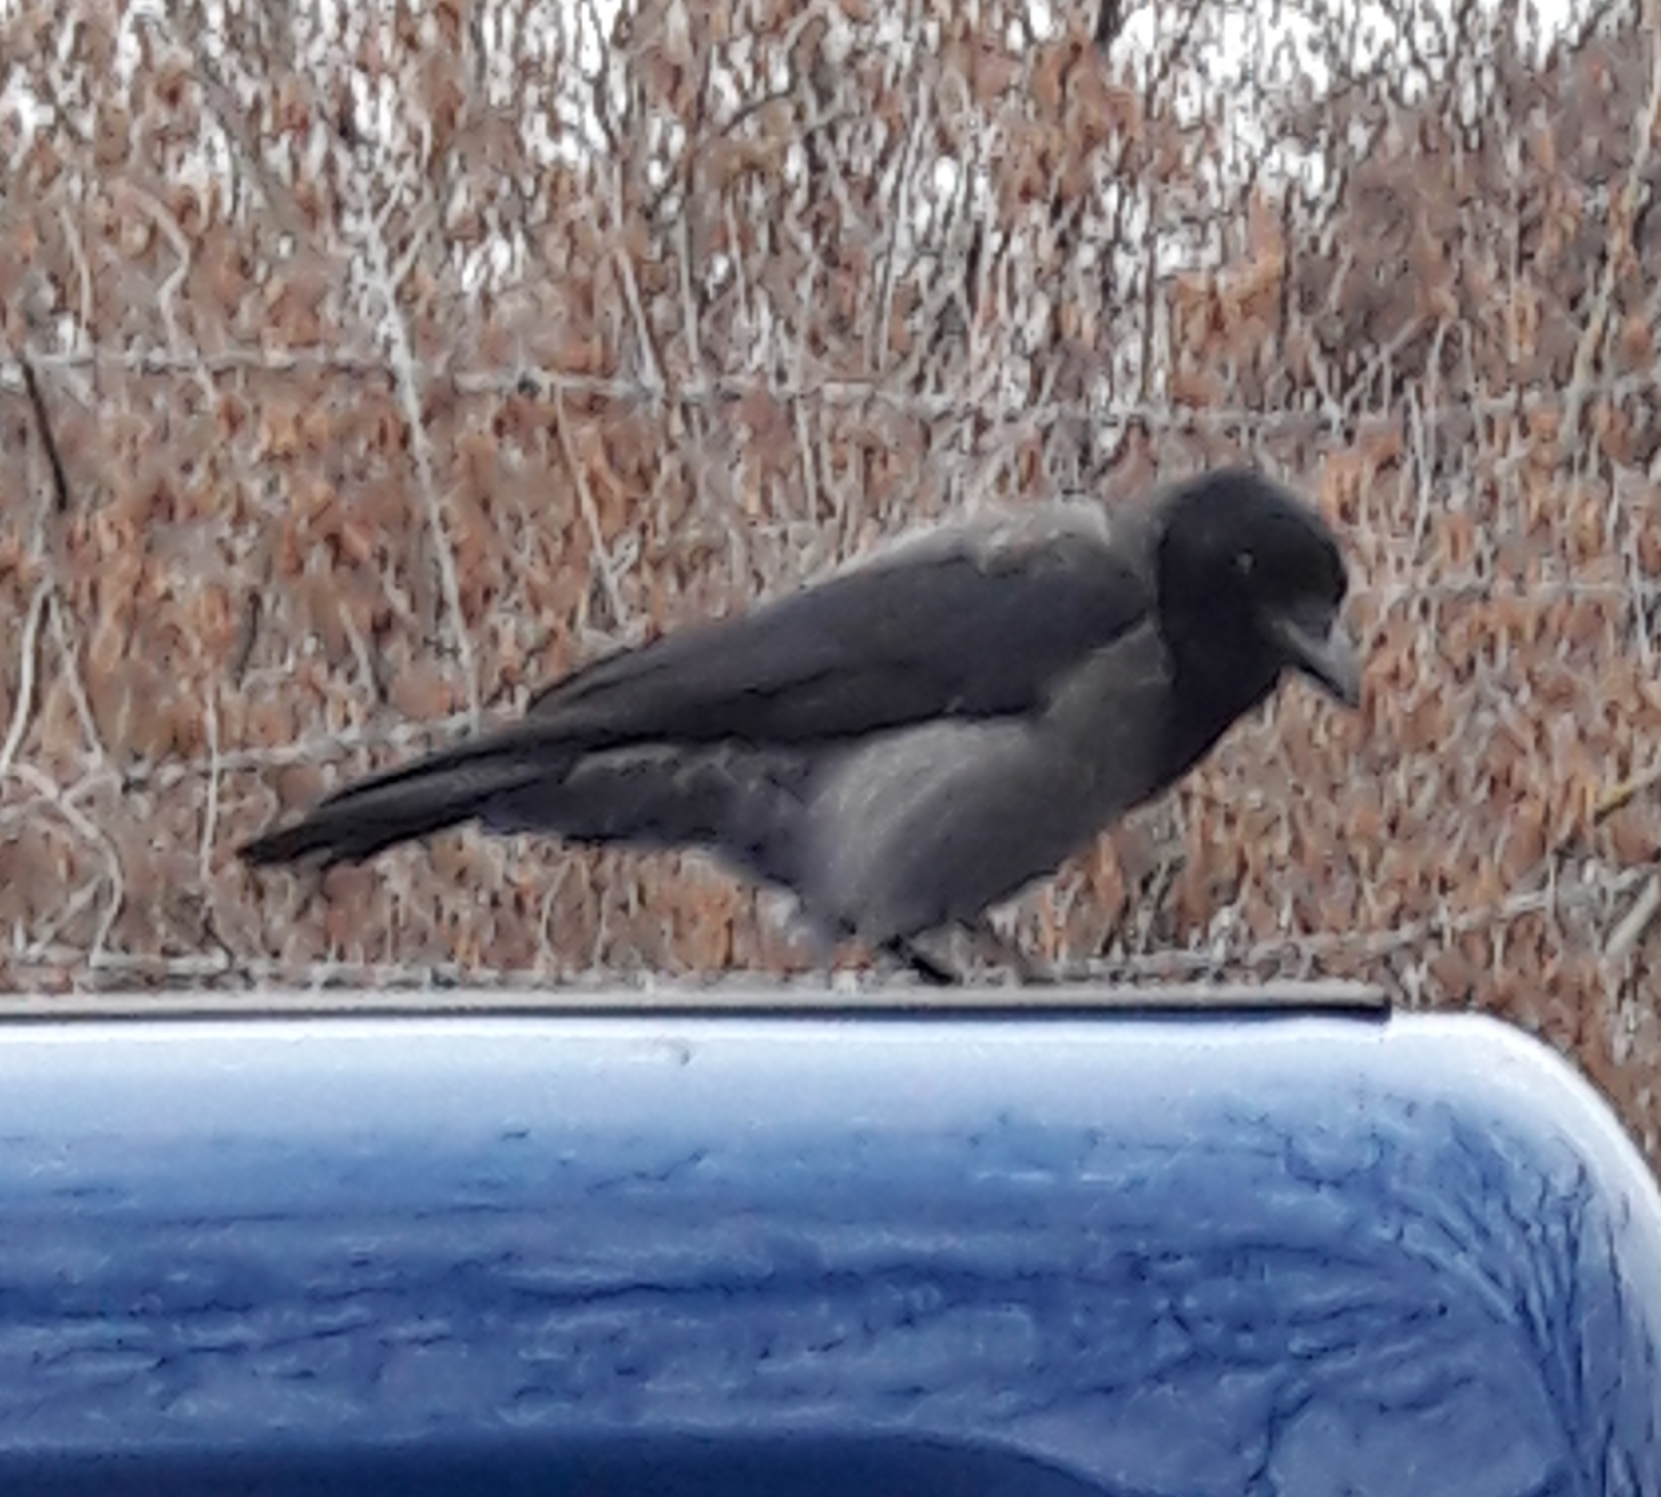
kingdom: Animalia
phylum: Chordata
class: Aves
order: Passeriformes
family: Corvidae
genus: Corvus
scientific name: Corvus cornix
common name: Hooded crow
